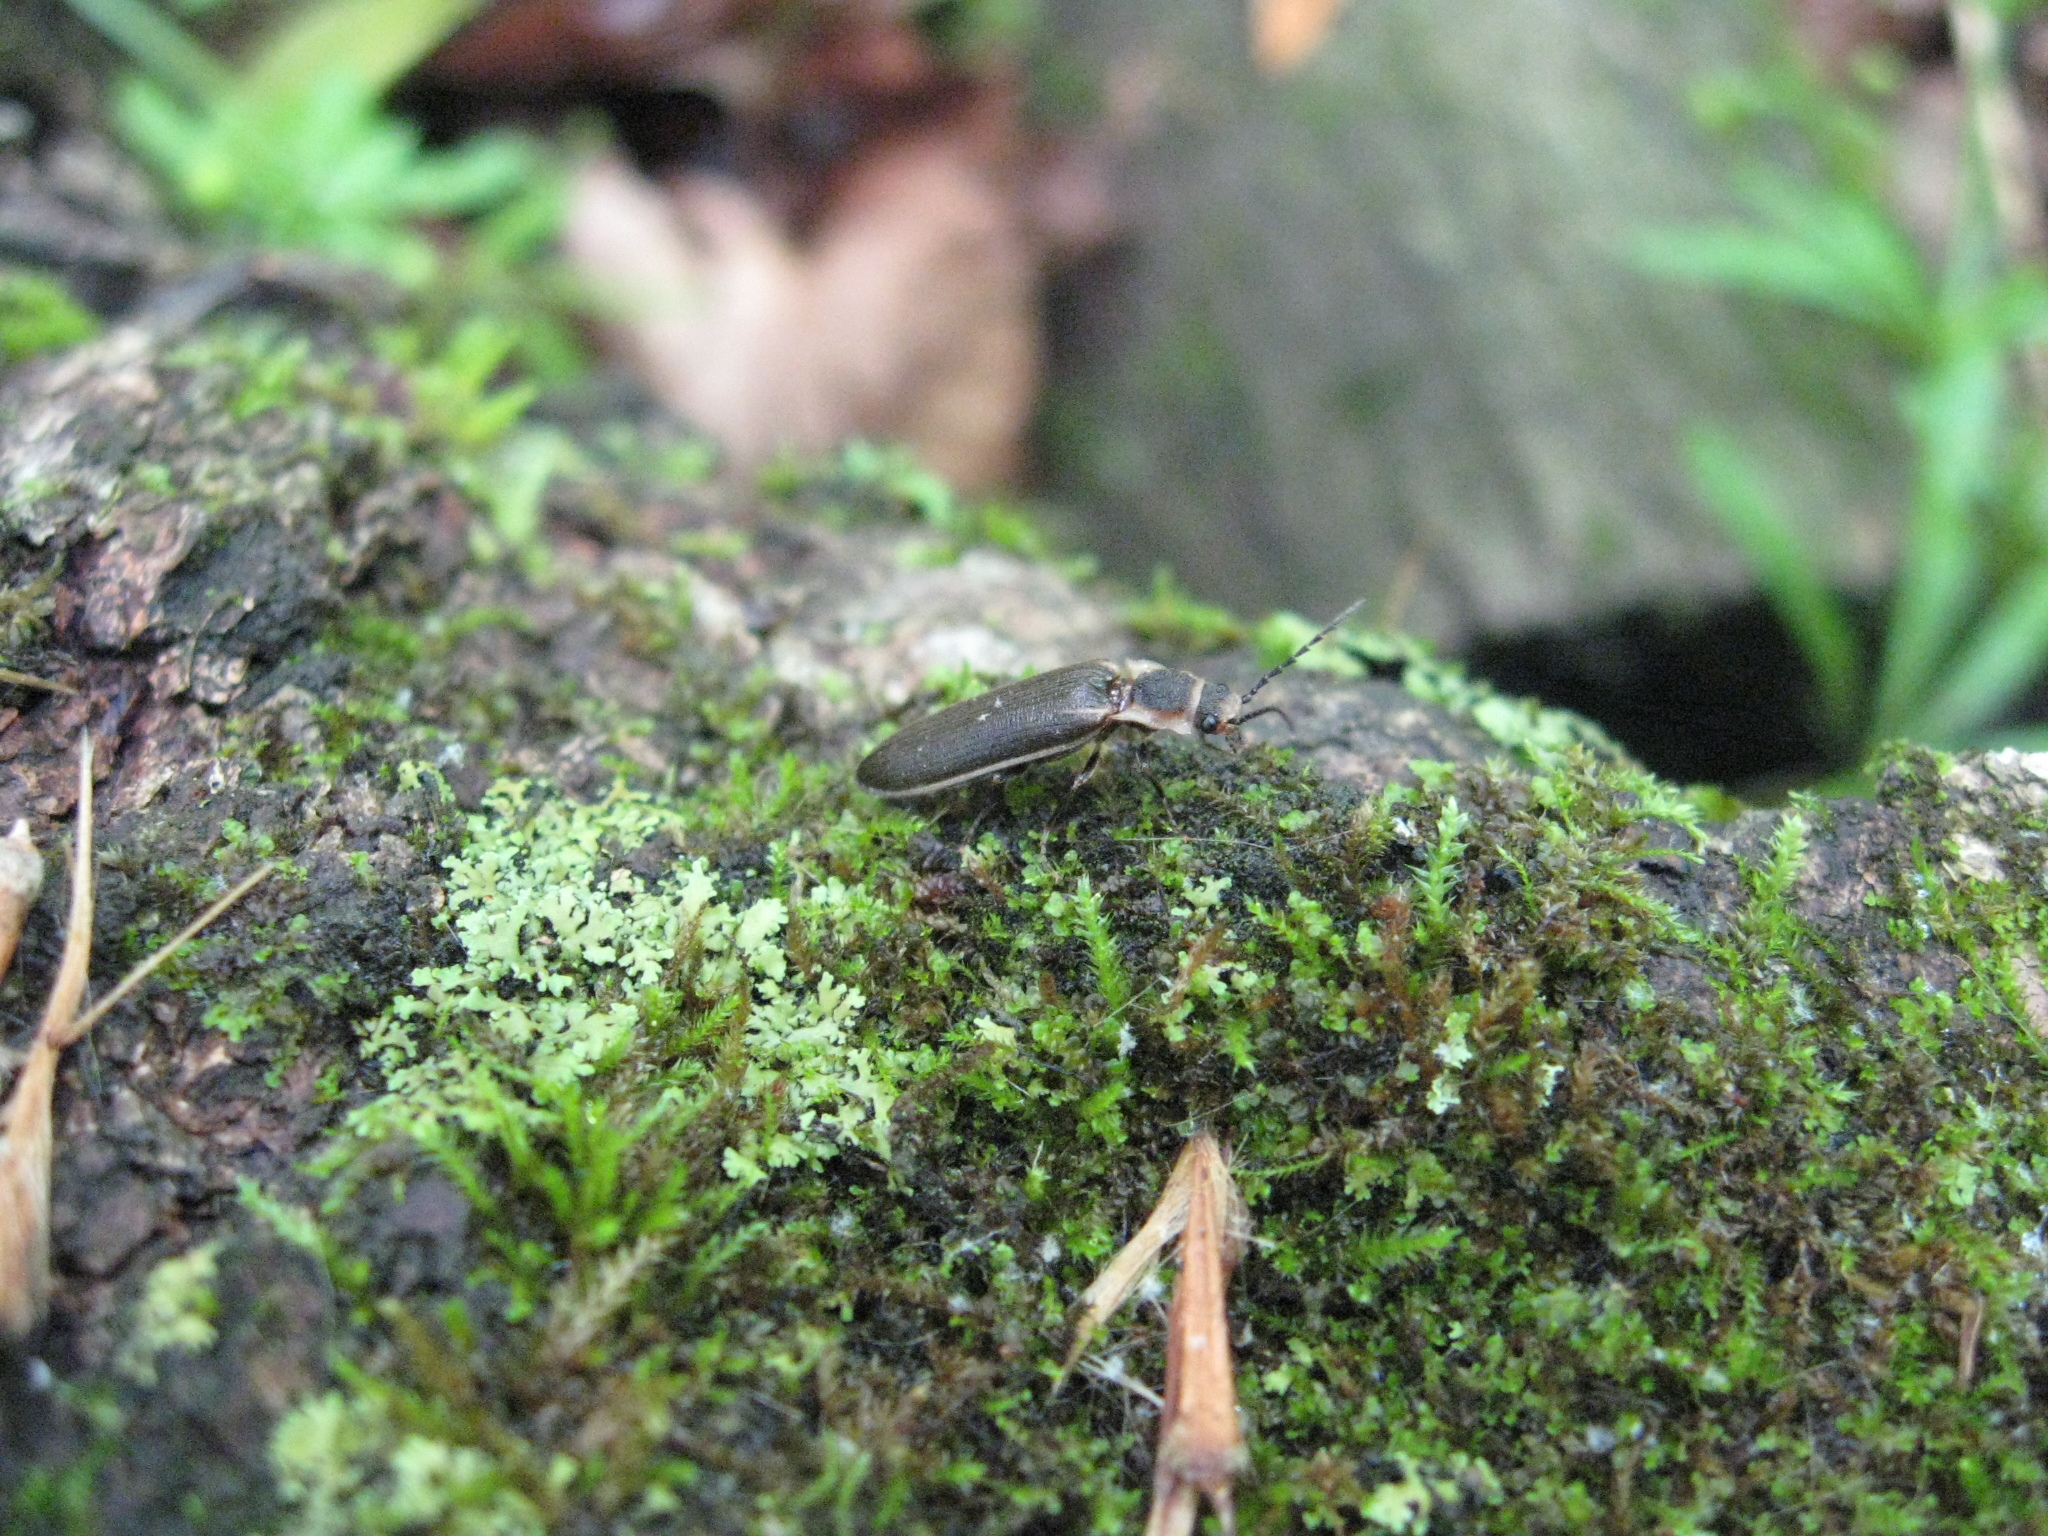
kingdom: Animalia
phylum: Arthropoda
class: Insecta
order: Coleoptera
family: Elateridae
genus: Denticollis
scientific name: Denticollis denticornis
